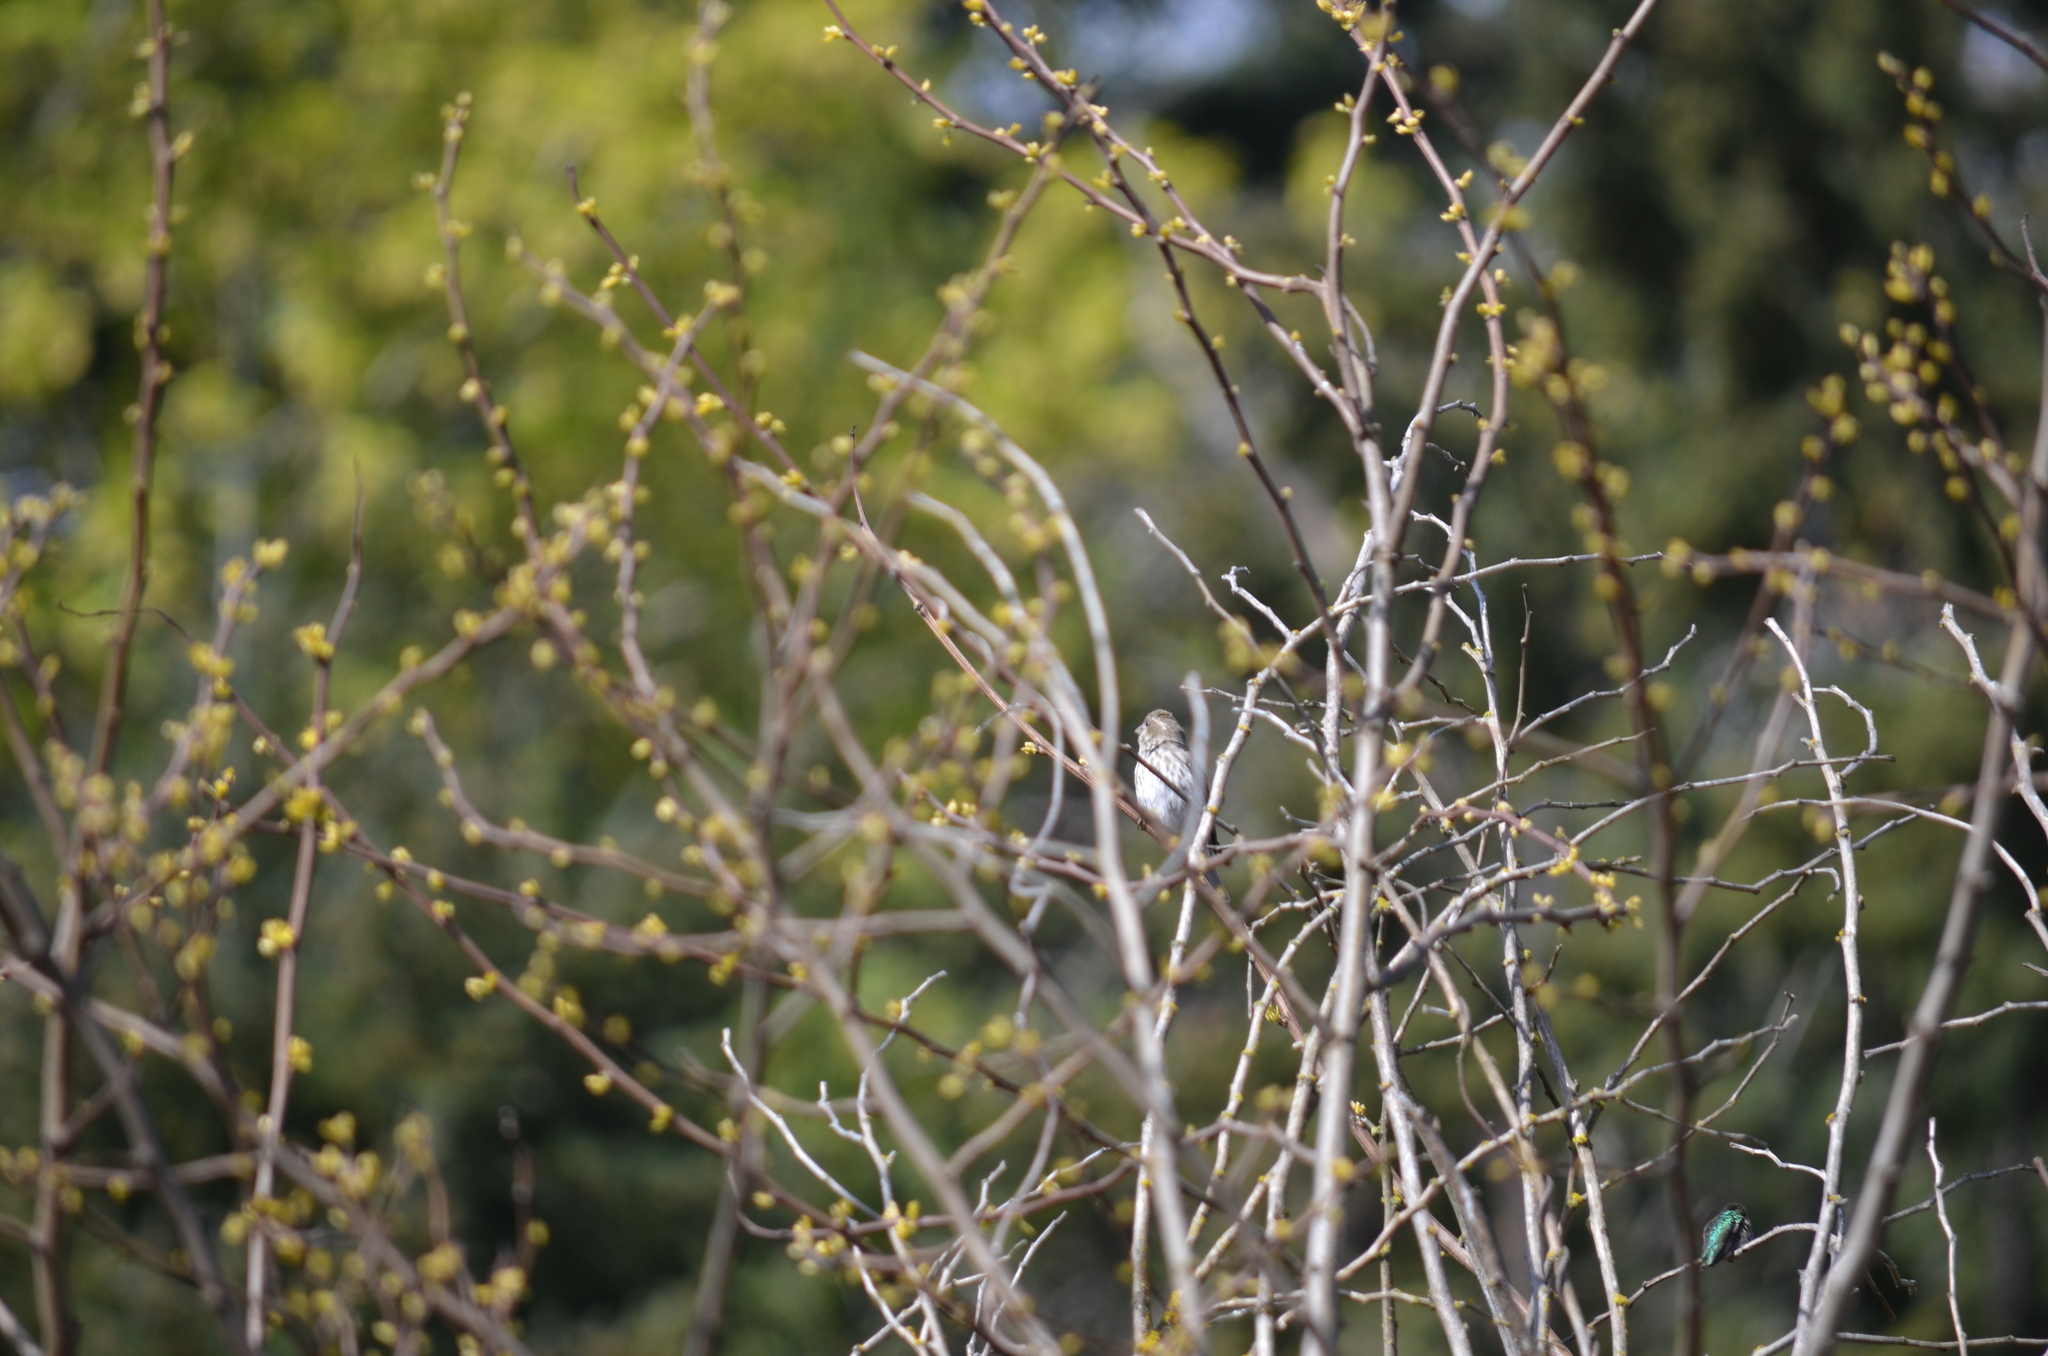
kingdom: Animalia
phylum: Chordata
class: Aves
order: Passeriformes
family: Fringillidae
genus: Haemorhous
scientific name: Haemorhous purpureus
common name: Purple finch
